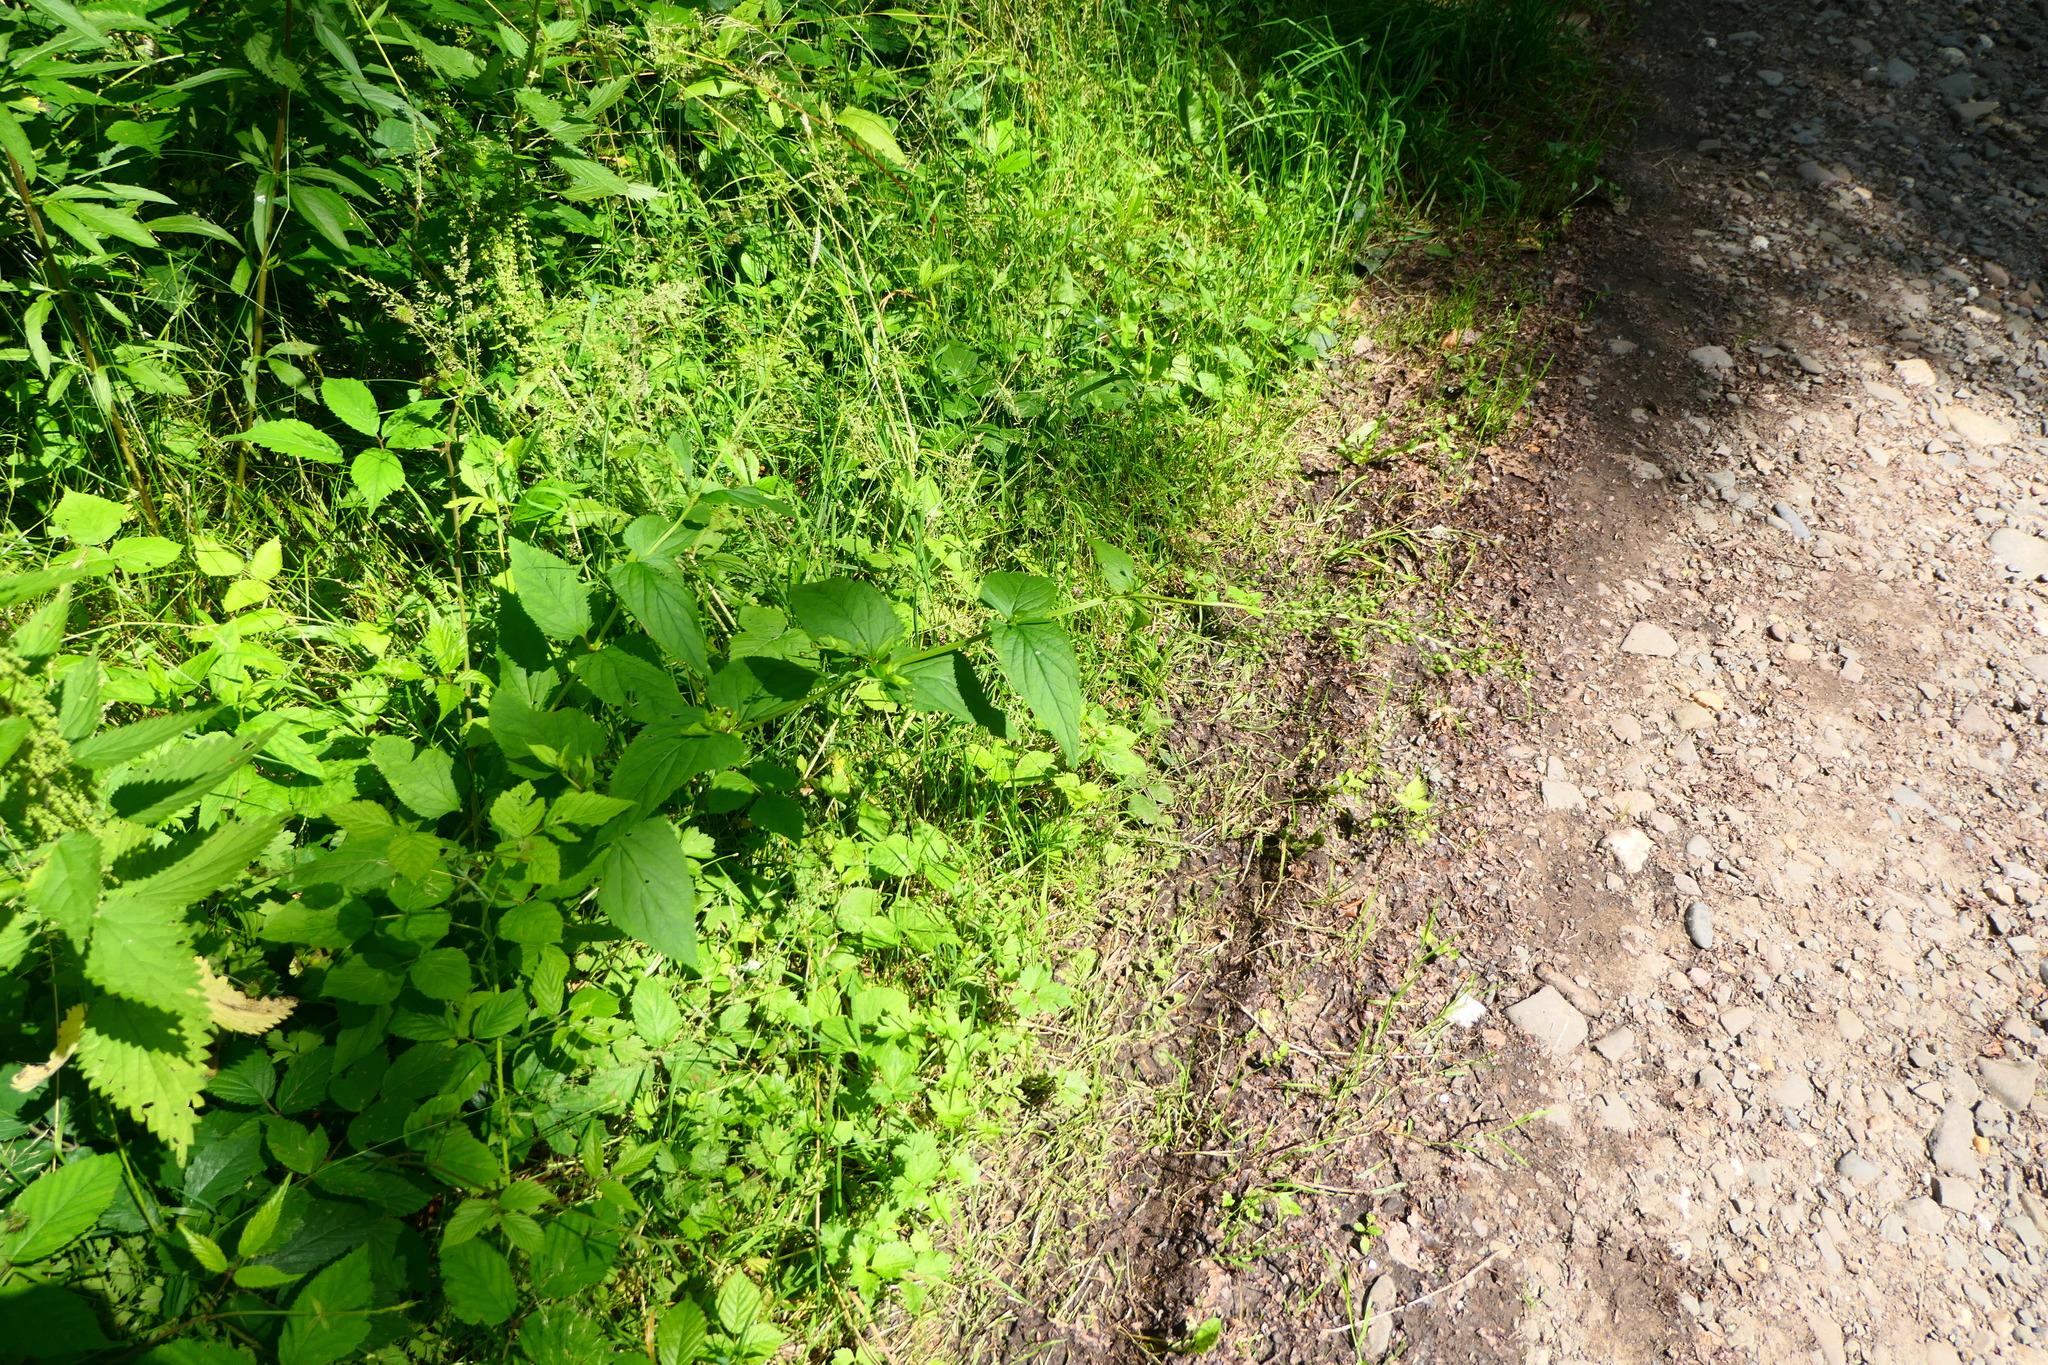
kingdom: Plantae
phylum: Tracheophyta
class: Magnoliopsida
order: Lamiales
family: Scrophulariaceae
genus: Scrophularia
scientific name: Scrophularia nodosa
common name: Common figwort
